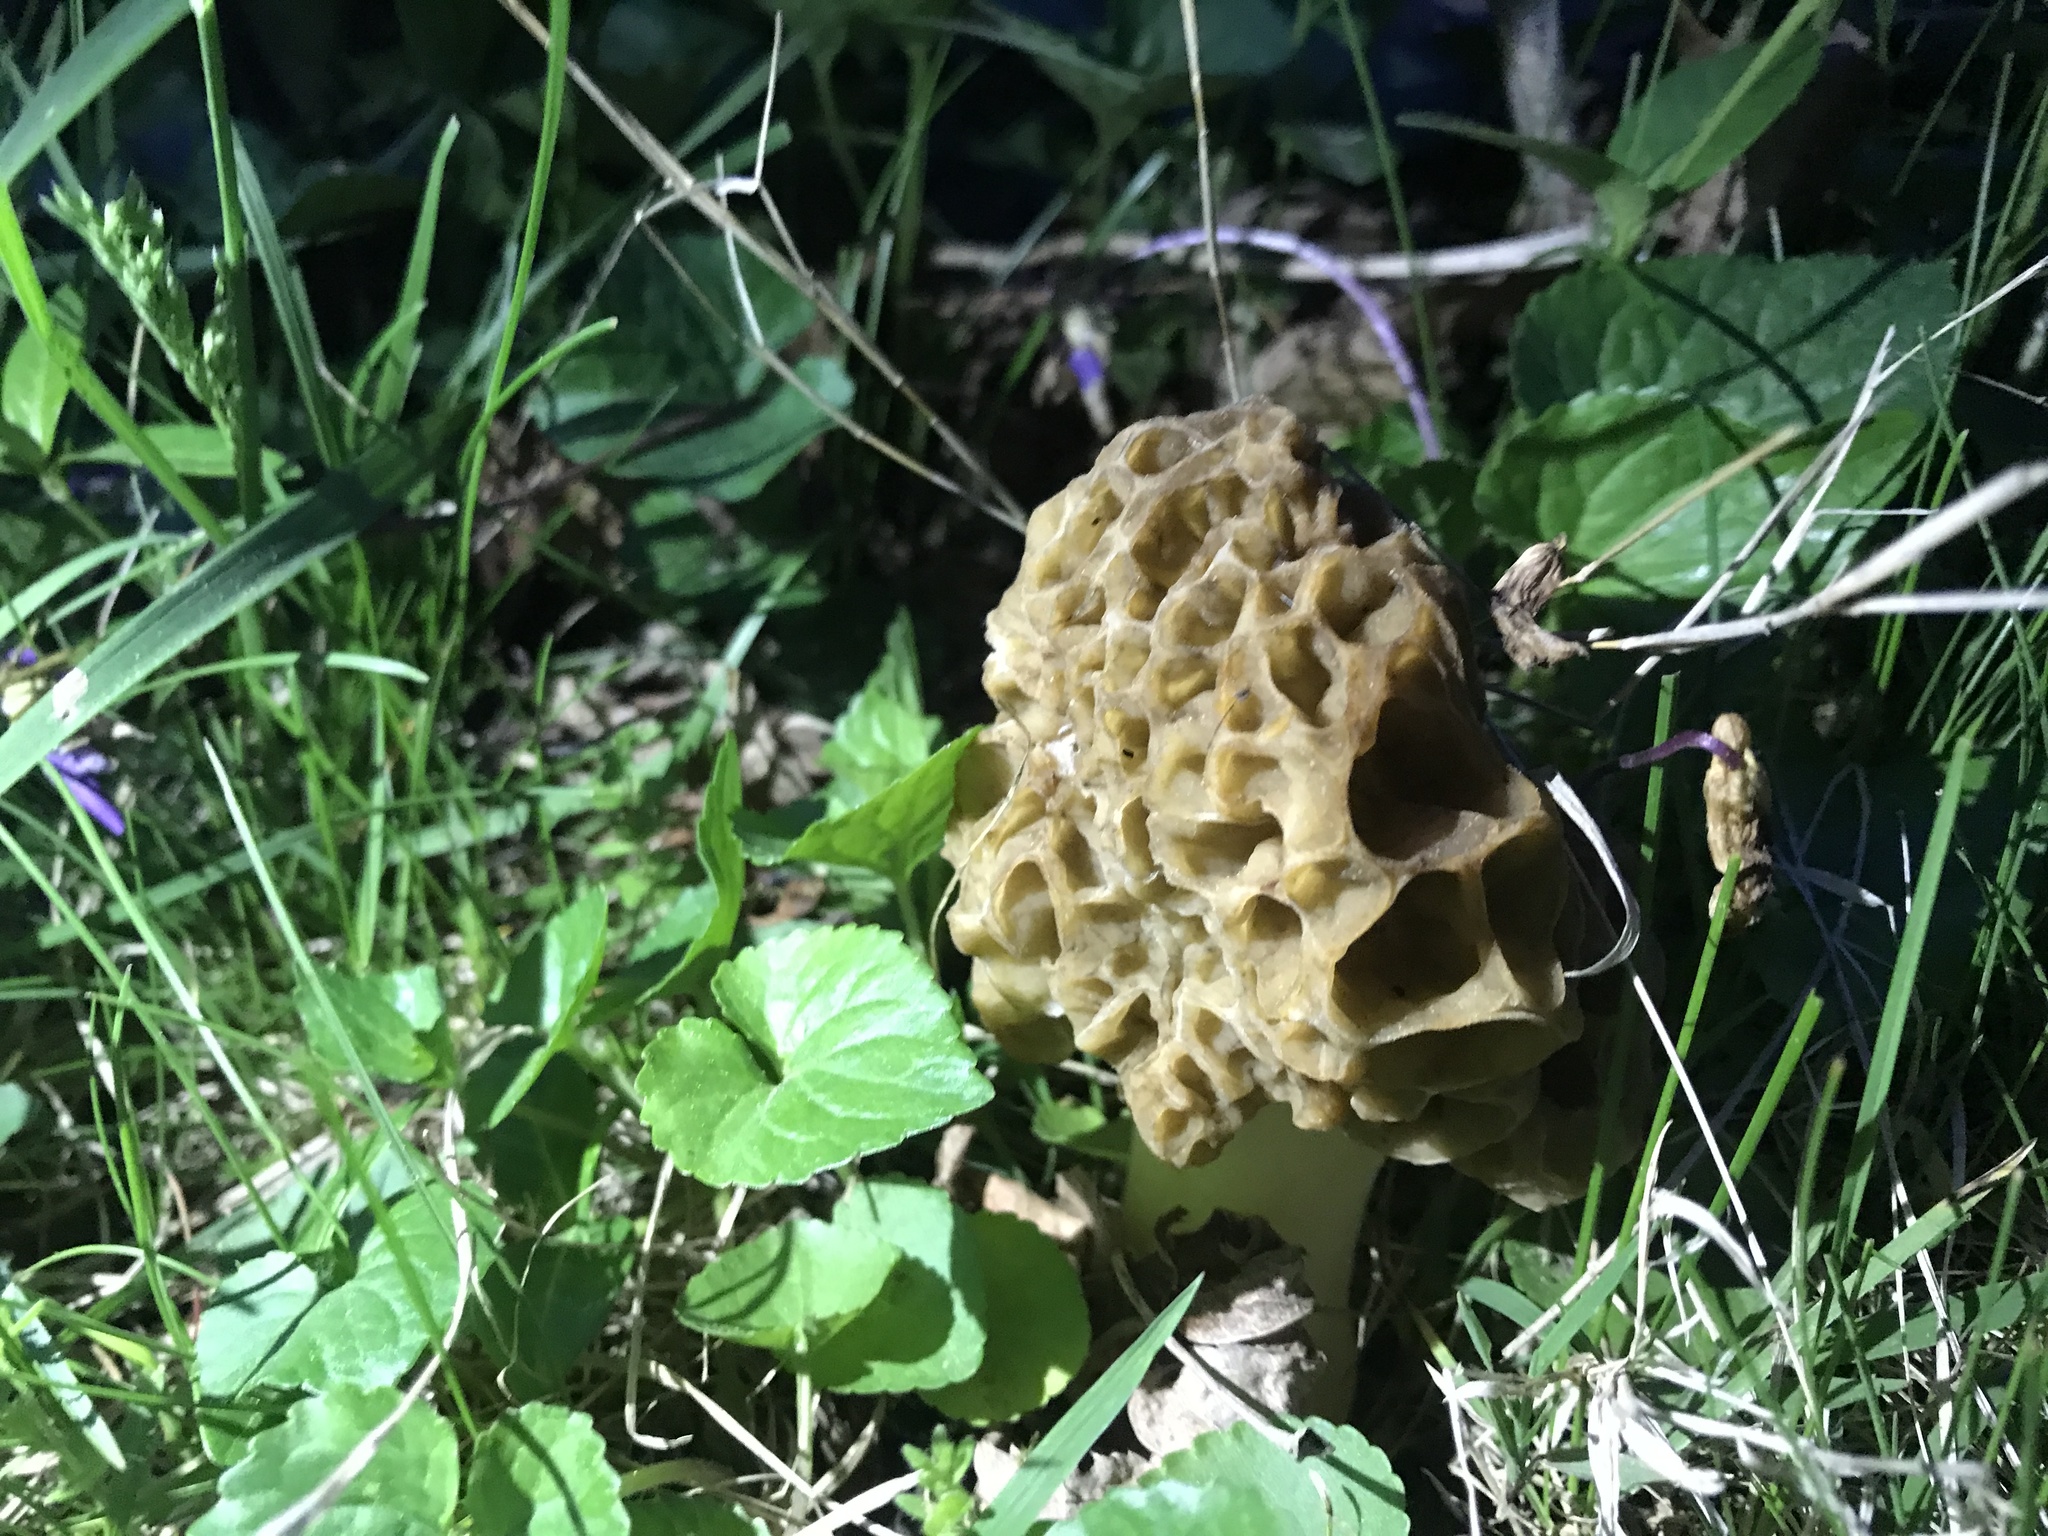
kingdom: Fungi
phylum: Ascomycota
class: Pezizomycetes
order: Pezizales
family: Morchellaceae
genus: Morchella
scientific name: Morchella americana
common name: White morel
